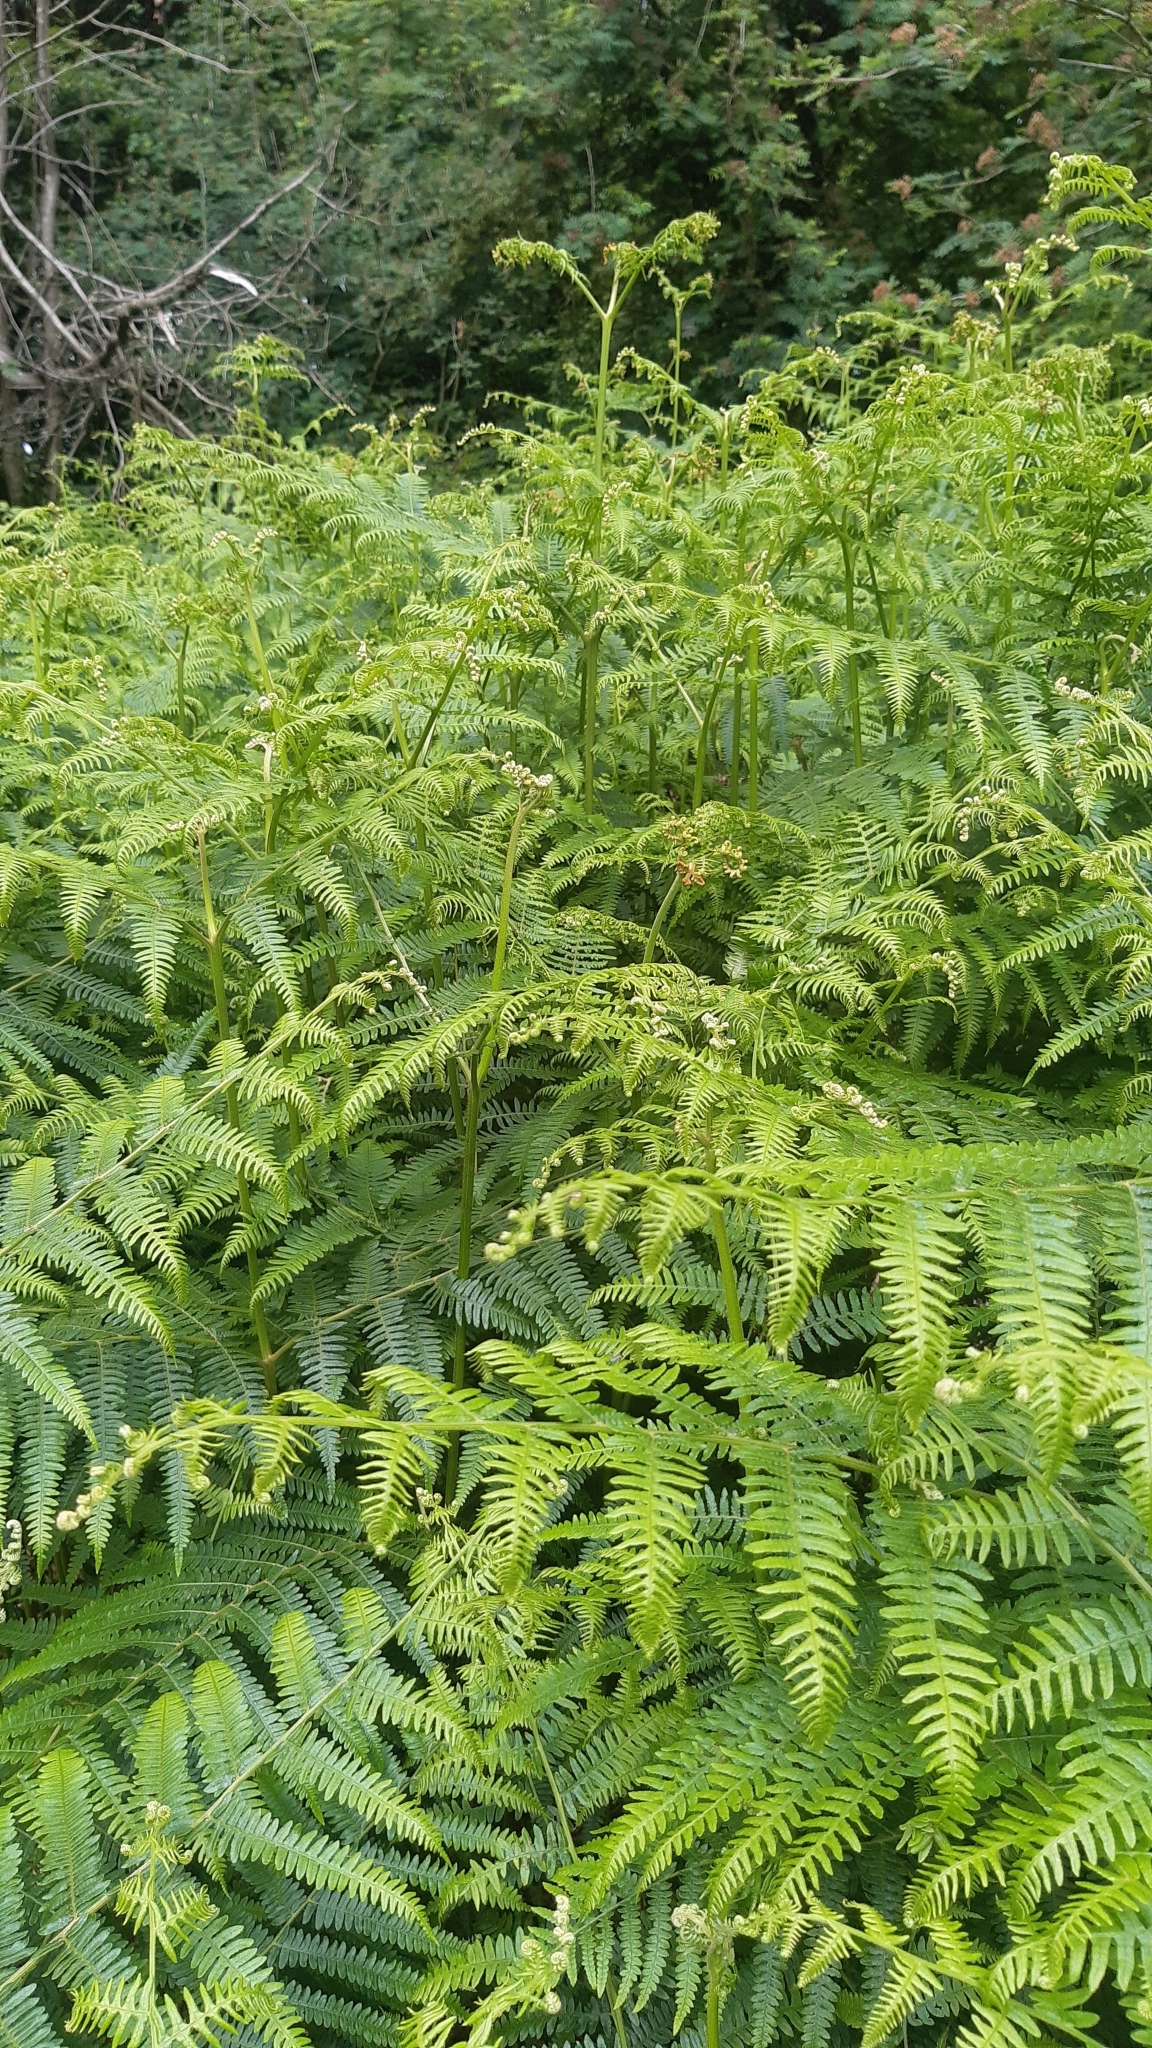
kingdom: Plantae
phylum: Tracheophyta
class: Polypodiopsida
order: Polypodiales
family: Dennstaedtiaceae
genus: Pteridium
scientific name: Pteridium aquilinum
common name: Bracken
